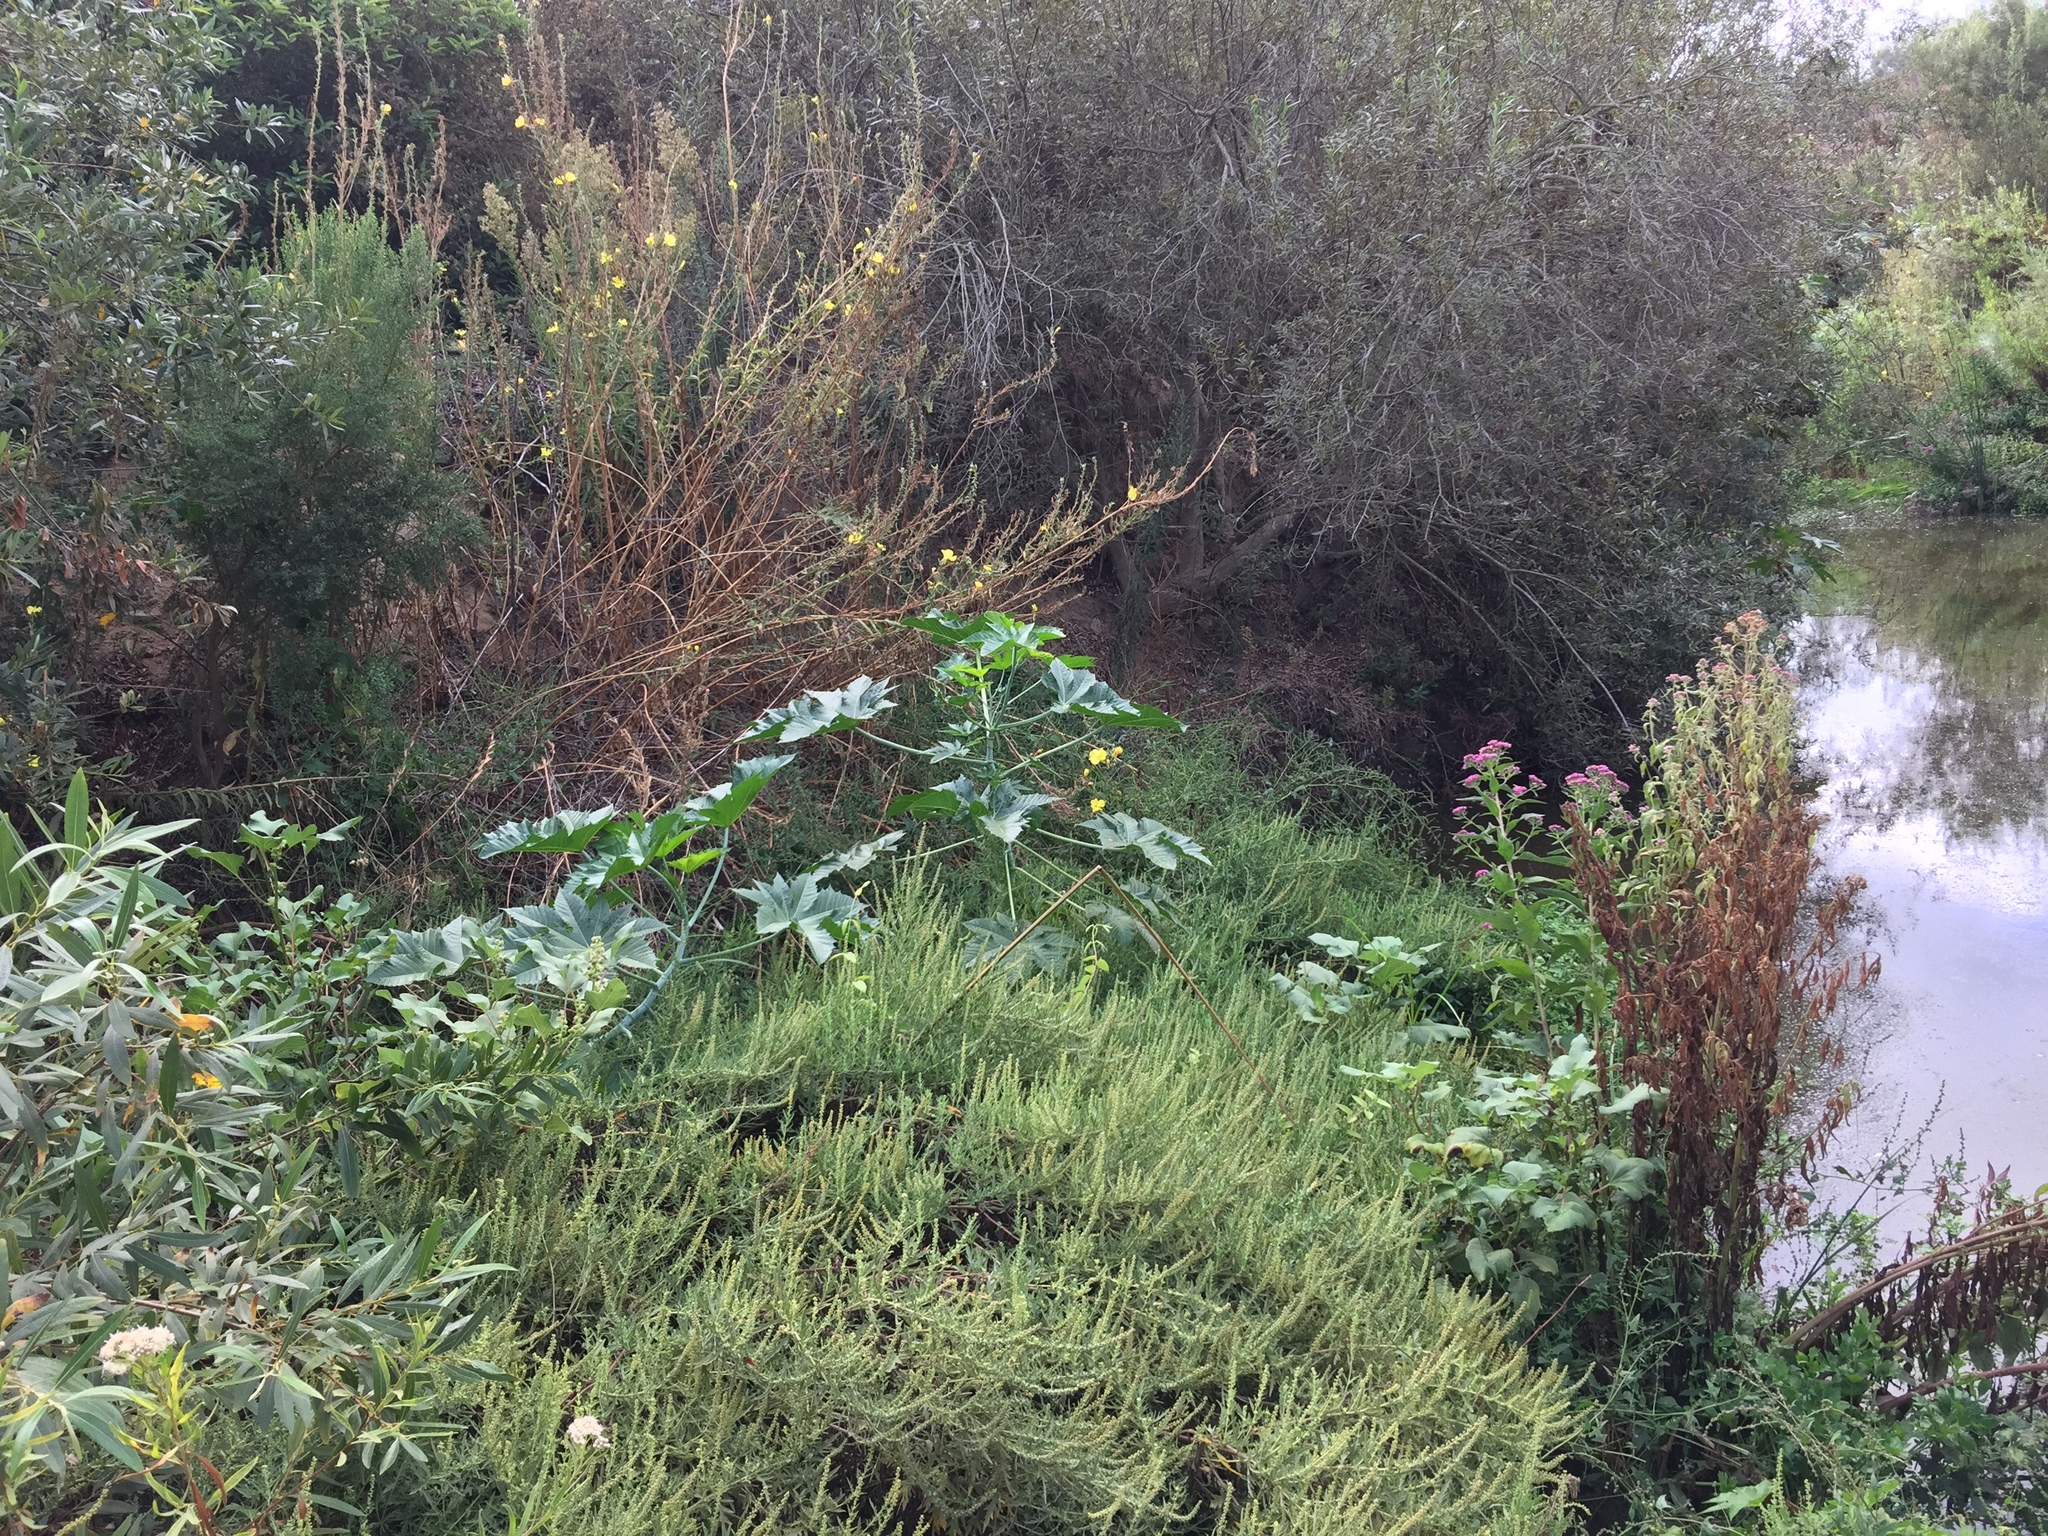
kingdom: Plantae
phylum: Tracheophyta
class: Magnoliopsida
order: Malpighiales
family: Euphorbiaceae
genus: Ricinus
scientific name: Ricinus communis
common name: Castor-oil-plant
